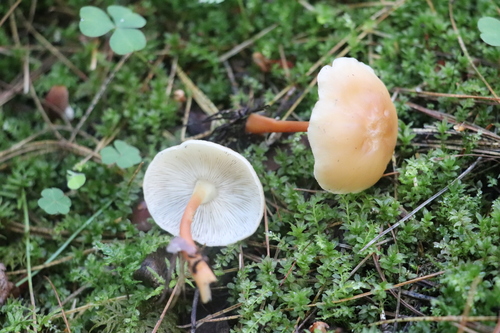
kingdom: Fungi
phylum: Basidiomycota
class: Agaricomycetes
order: Agaricales
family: Omphalotaceae
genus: Gymnopus
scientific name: Gymnopus ocior
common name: Spring toughshank
